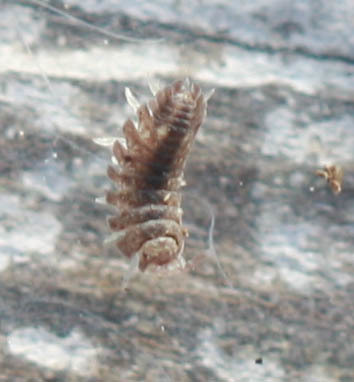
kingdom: Animalia
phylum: Arthropoda
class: Malacostraca
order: Isopoda
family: Detonidae
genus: Armadilloniscus
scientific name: Armadilloniscus coronacapitalis
